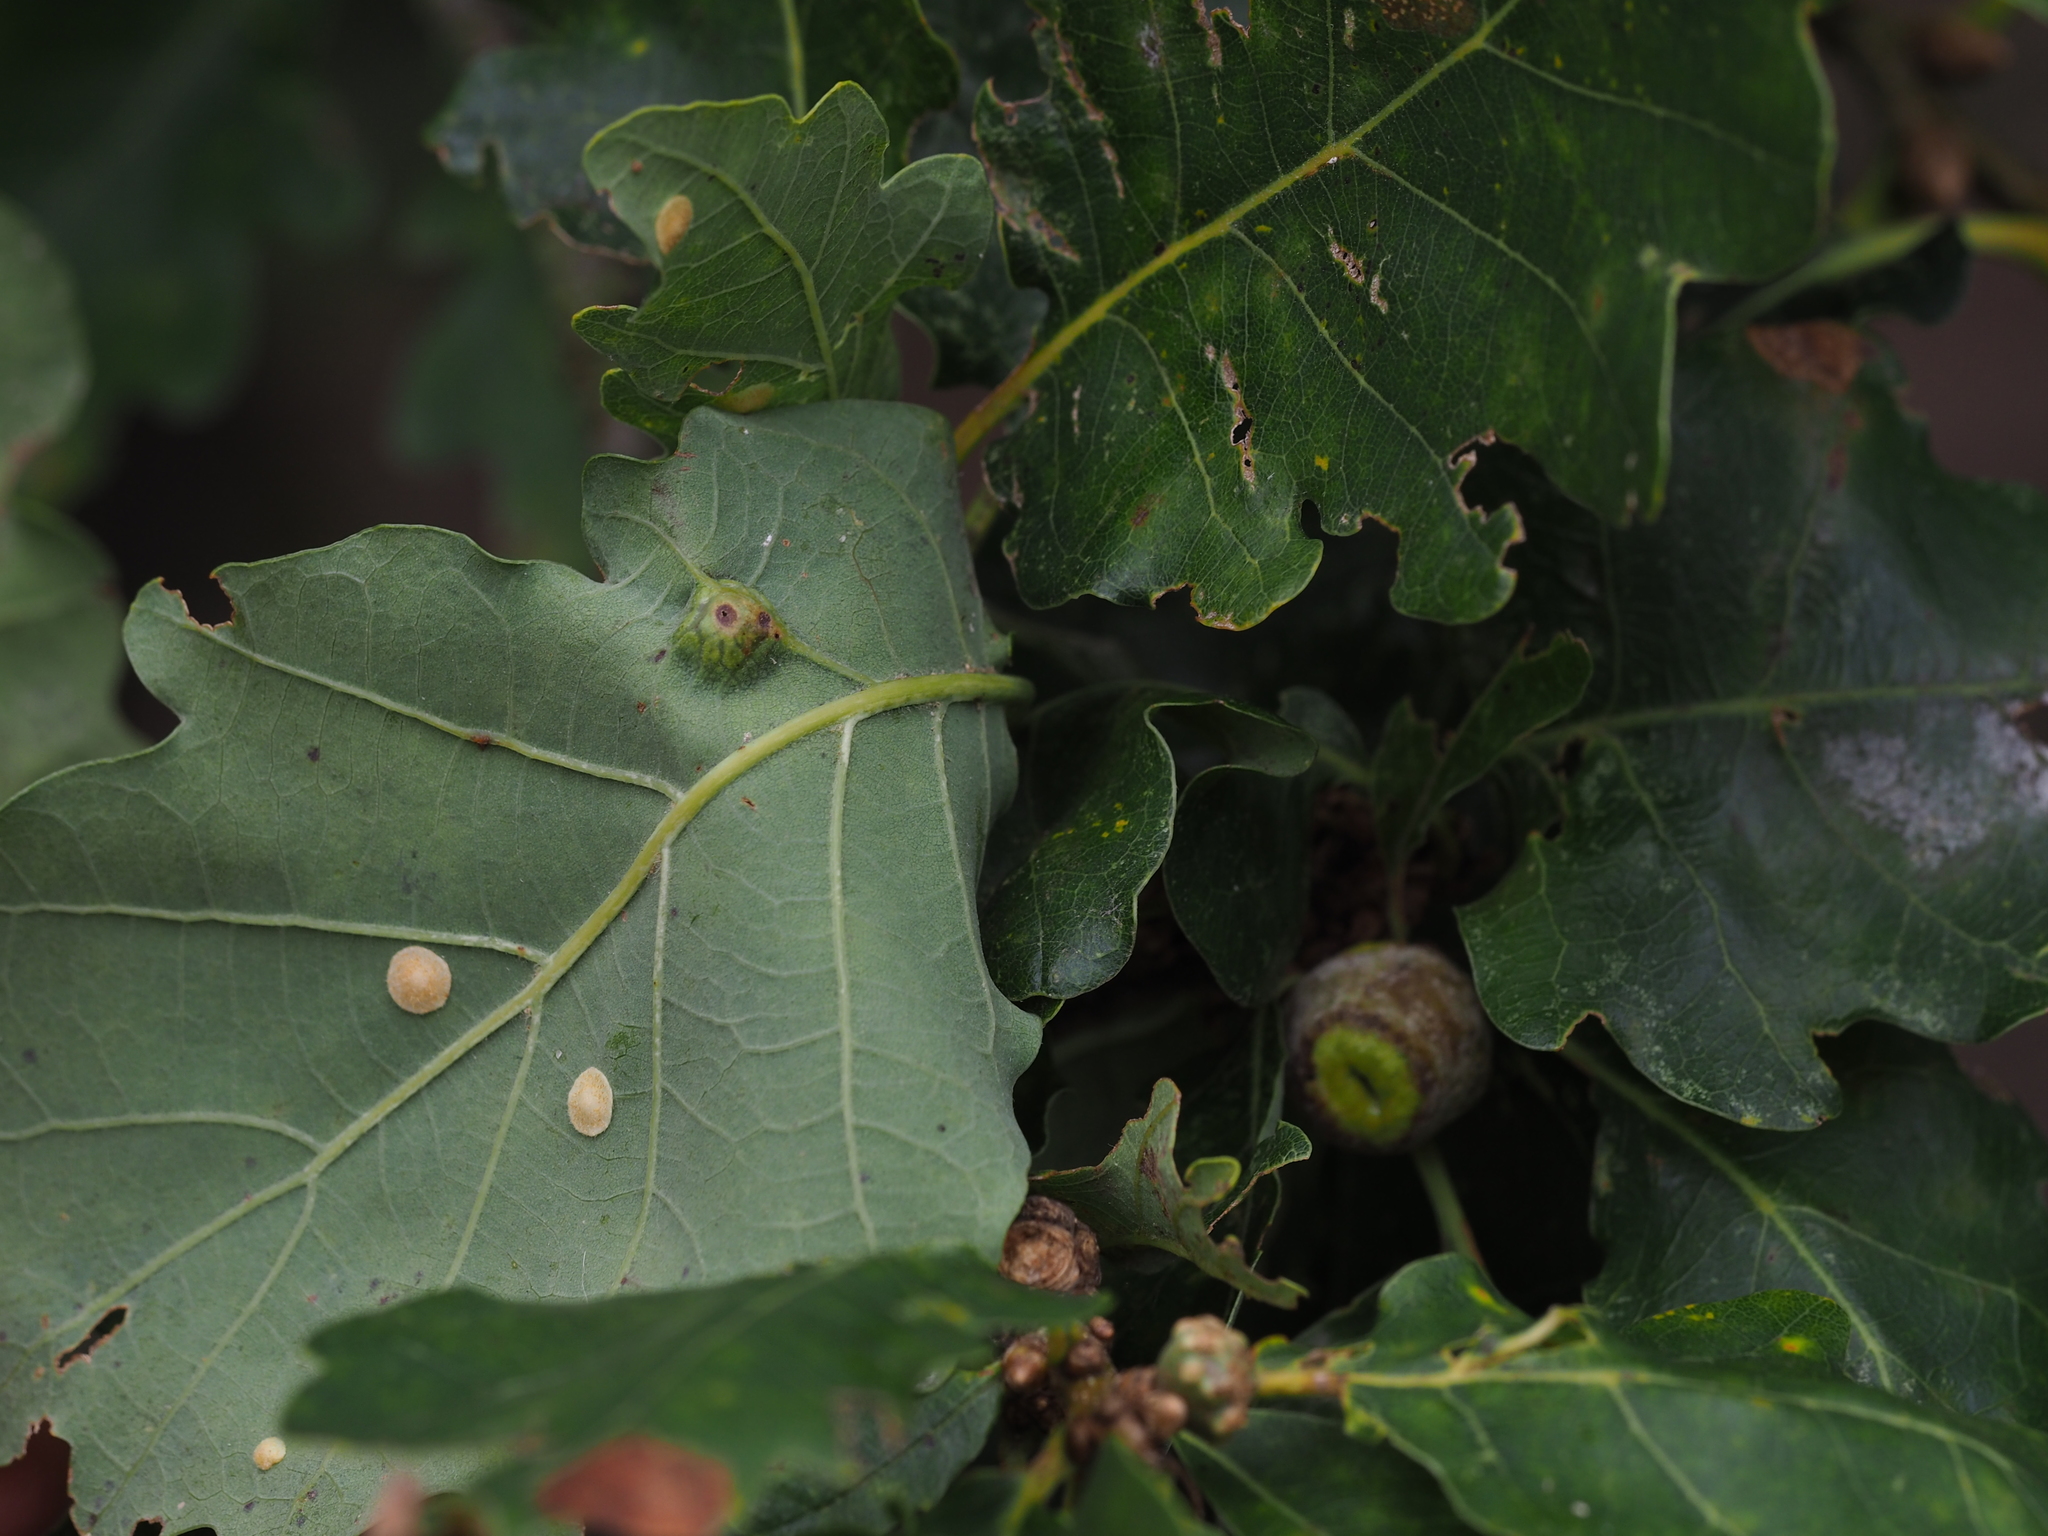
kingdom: Animalia
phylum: Arthropoda
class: Insecta
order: Hymenoptera
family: Cynipidae
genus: Andricus
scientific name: Andricus curvator
